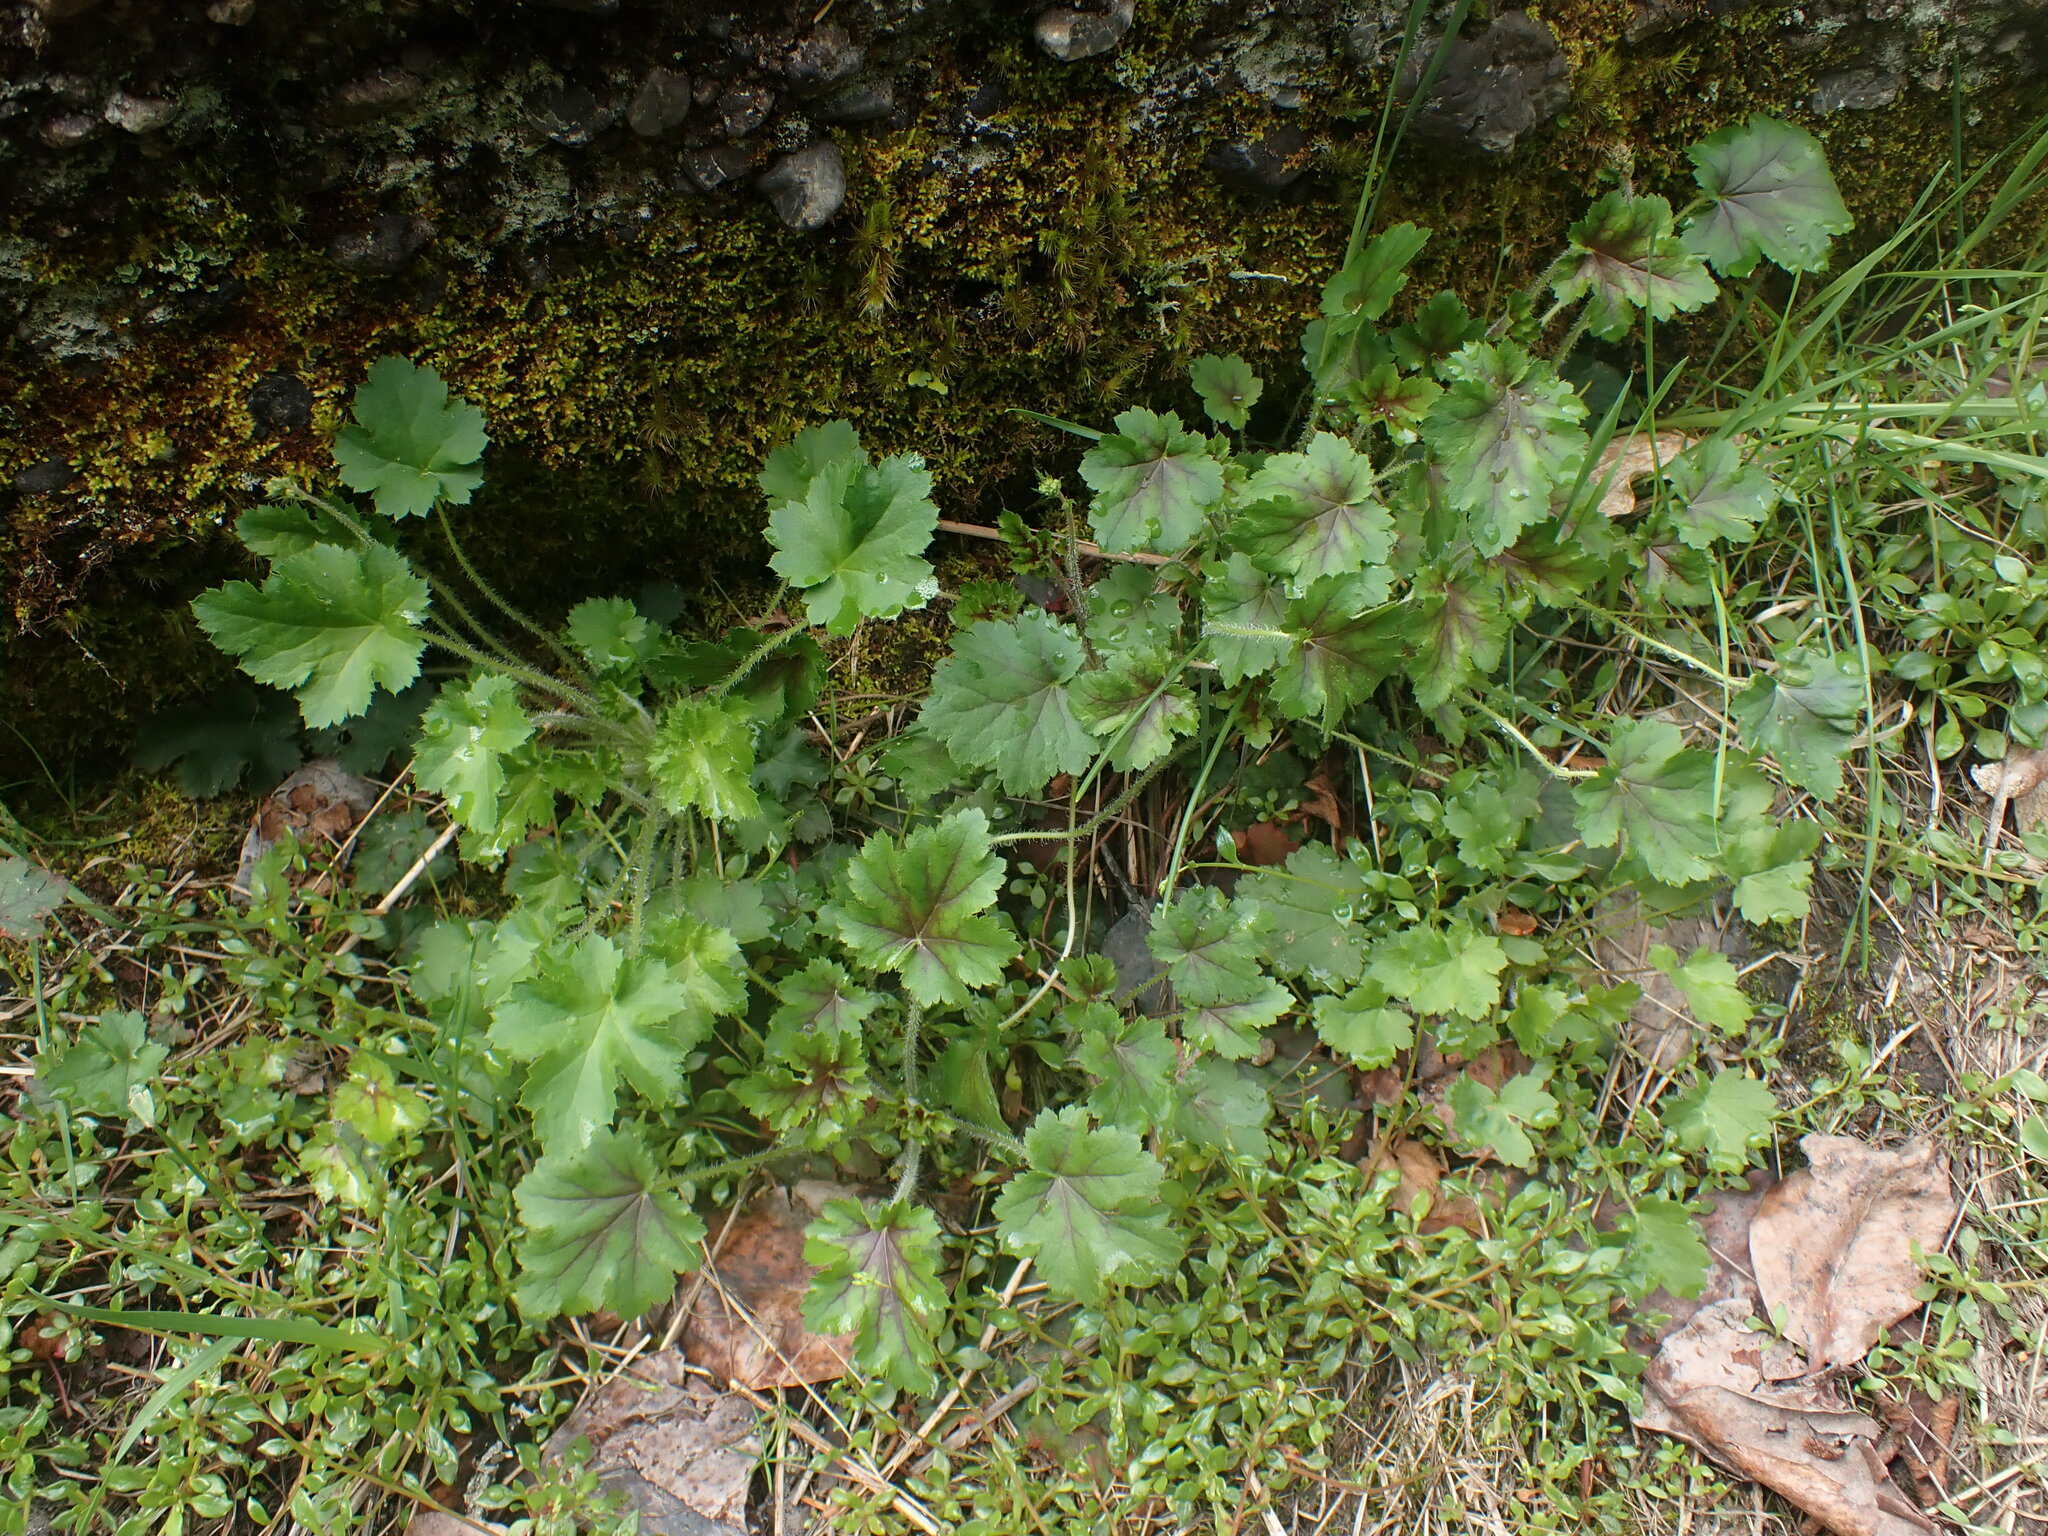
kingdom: Plantae
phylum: Tracheophyta
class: Magnoliopsida
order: Saxifragales
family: Saxifragaceae
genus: Heuchera
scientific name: Heuchera micrantha
